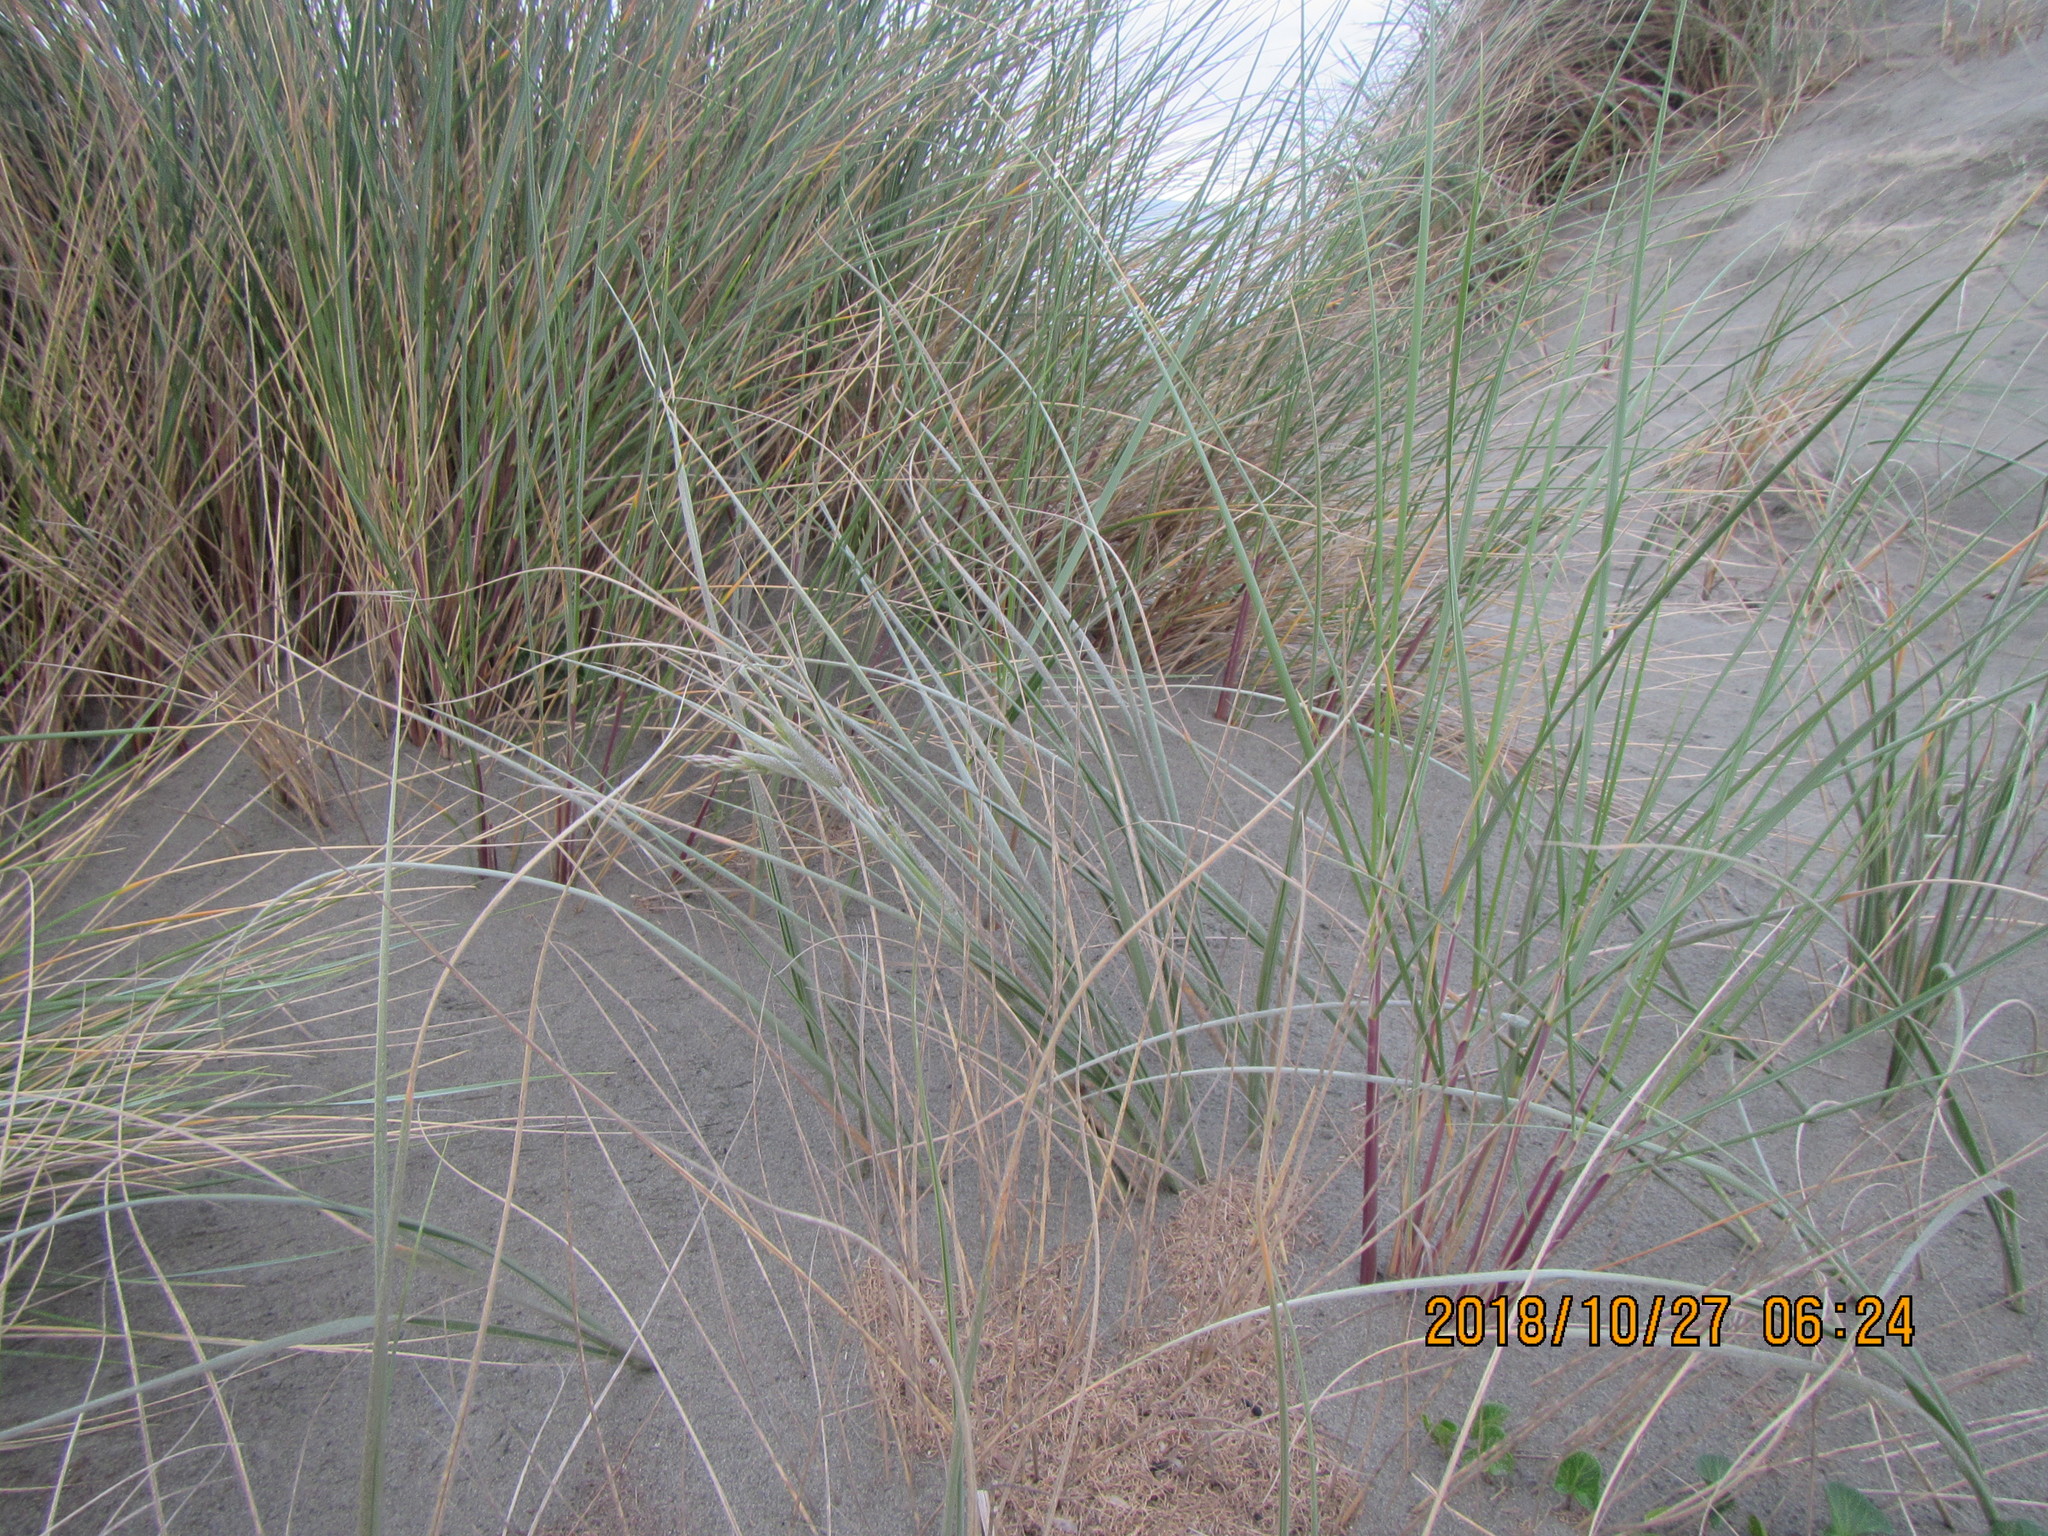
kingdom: Plantae
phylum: Tracheophyta
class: Liliopsida
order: Poales
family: Poaceae
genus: Calamagrostis
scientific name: Calamagrostis arenaria
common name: European beachgrass
